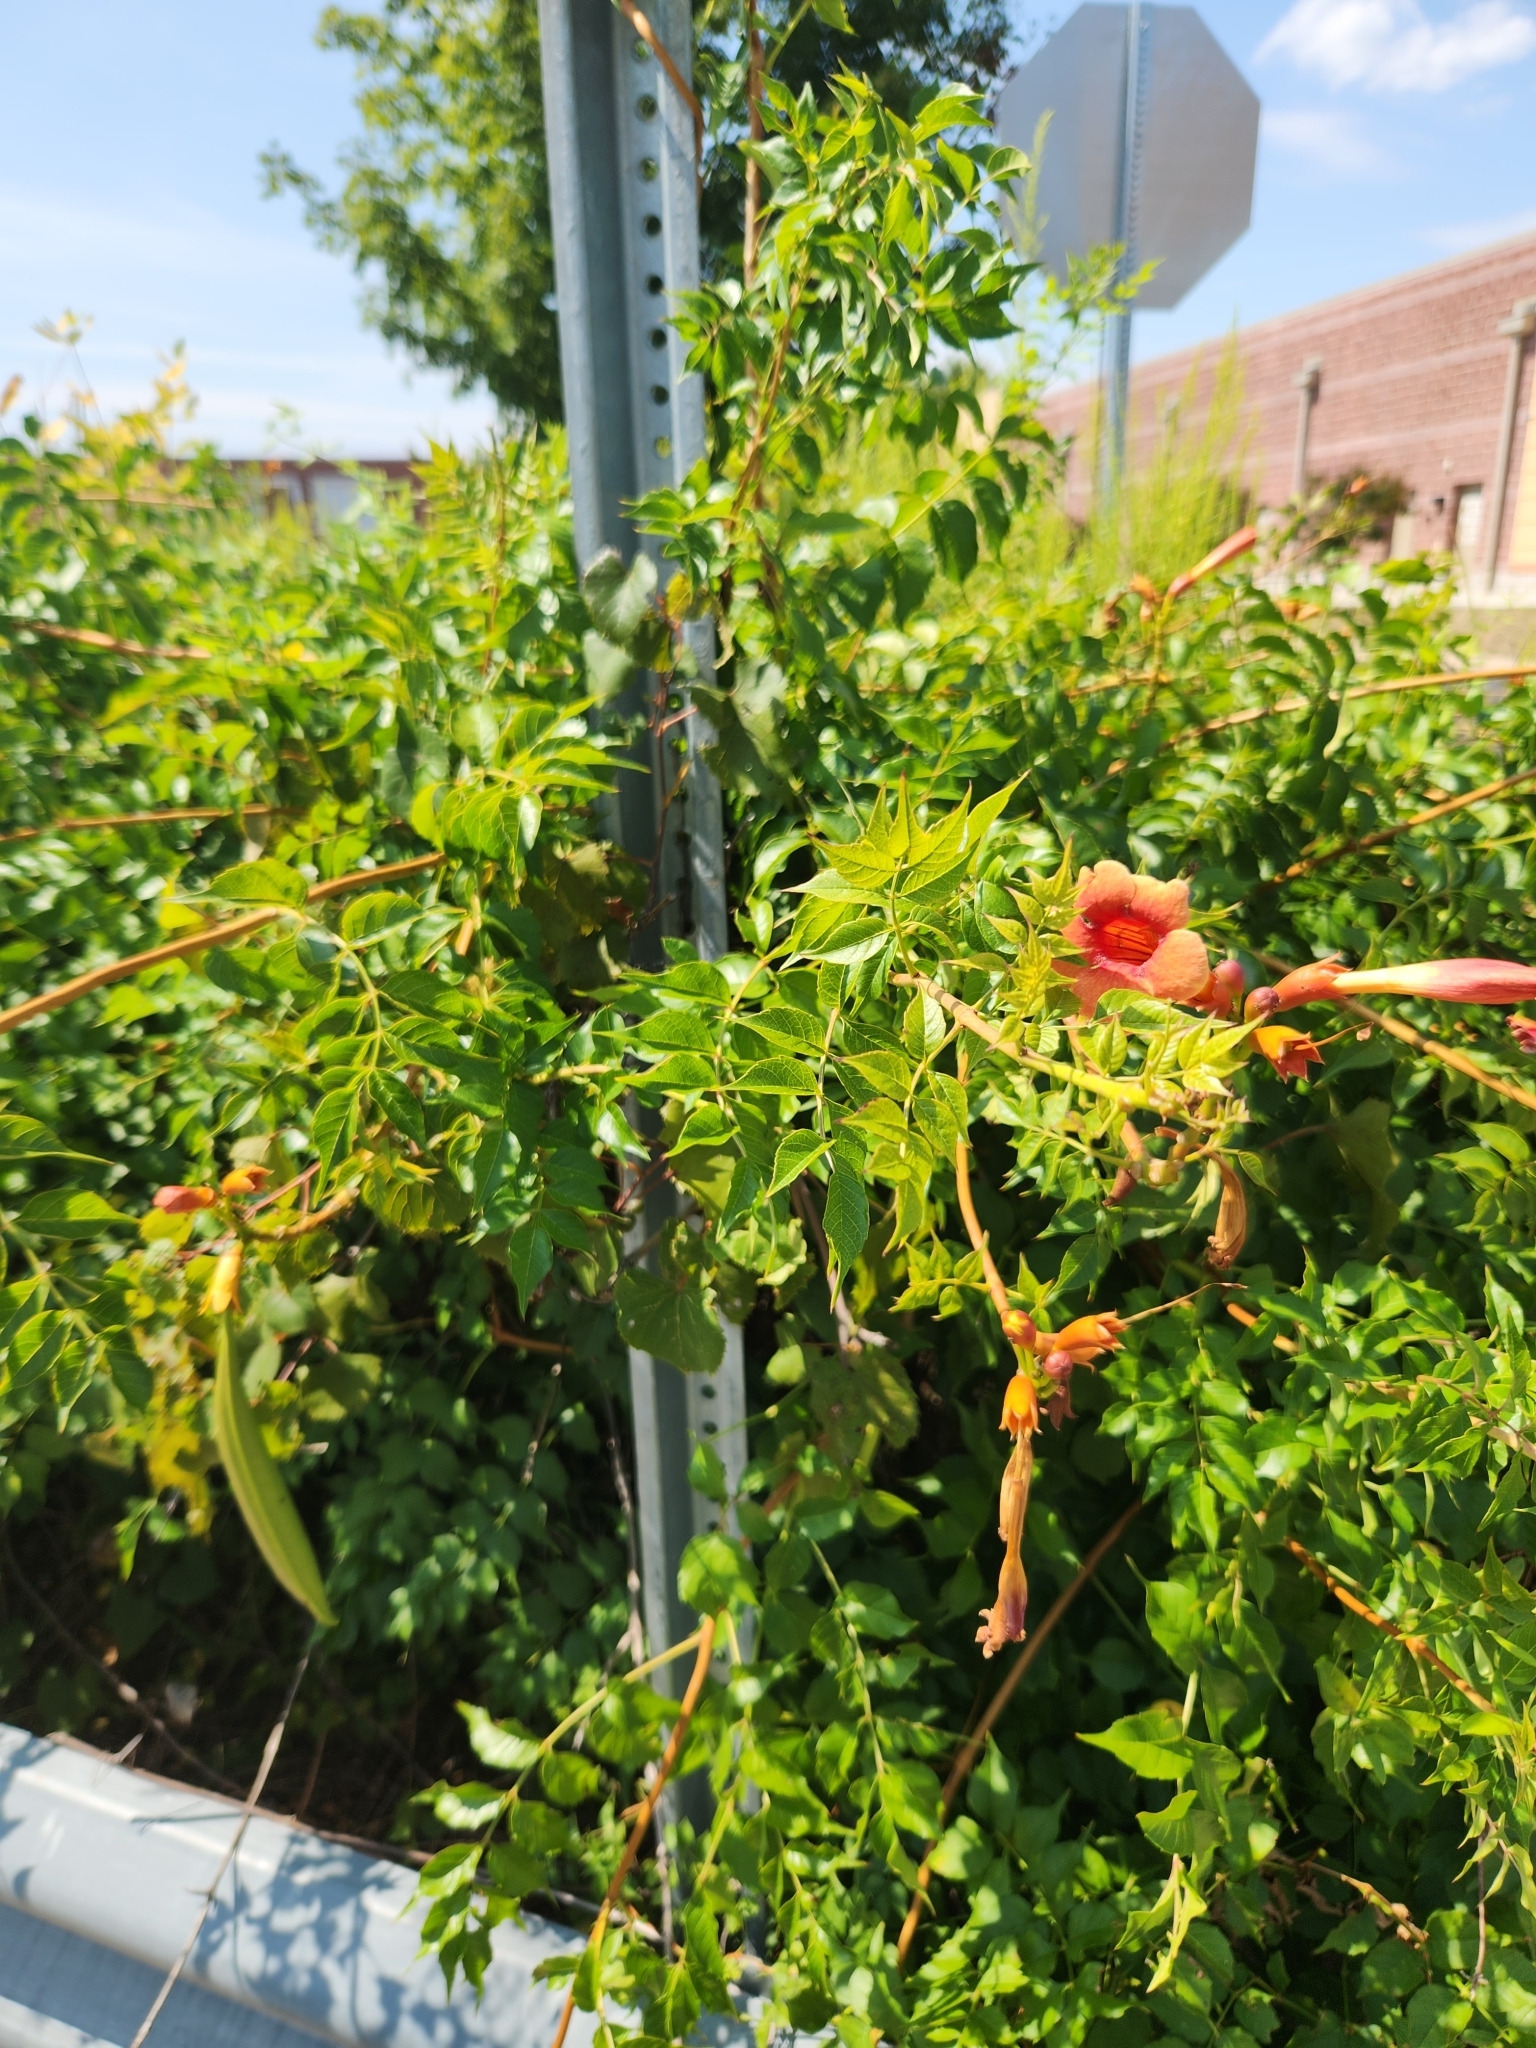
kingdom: Plantae
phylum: Tracheophyta
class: Magnoliopsida
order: Lamiales
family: Bignoniaceae
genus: Campsis
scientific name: Campsis radicans
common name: Trumpet-creeper
